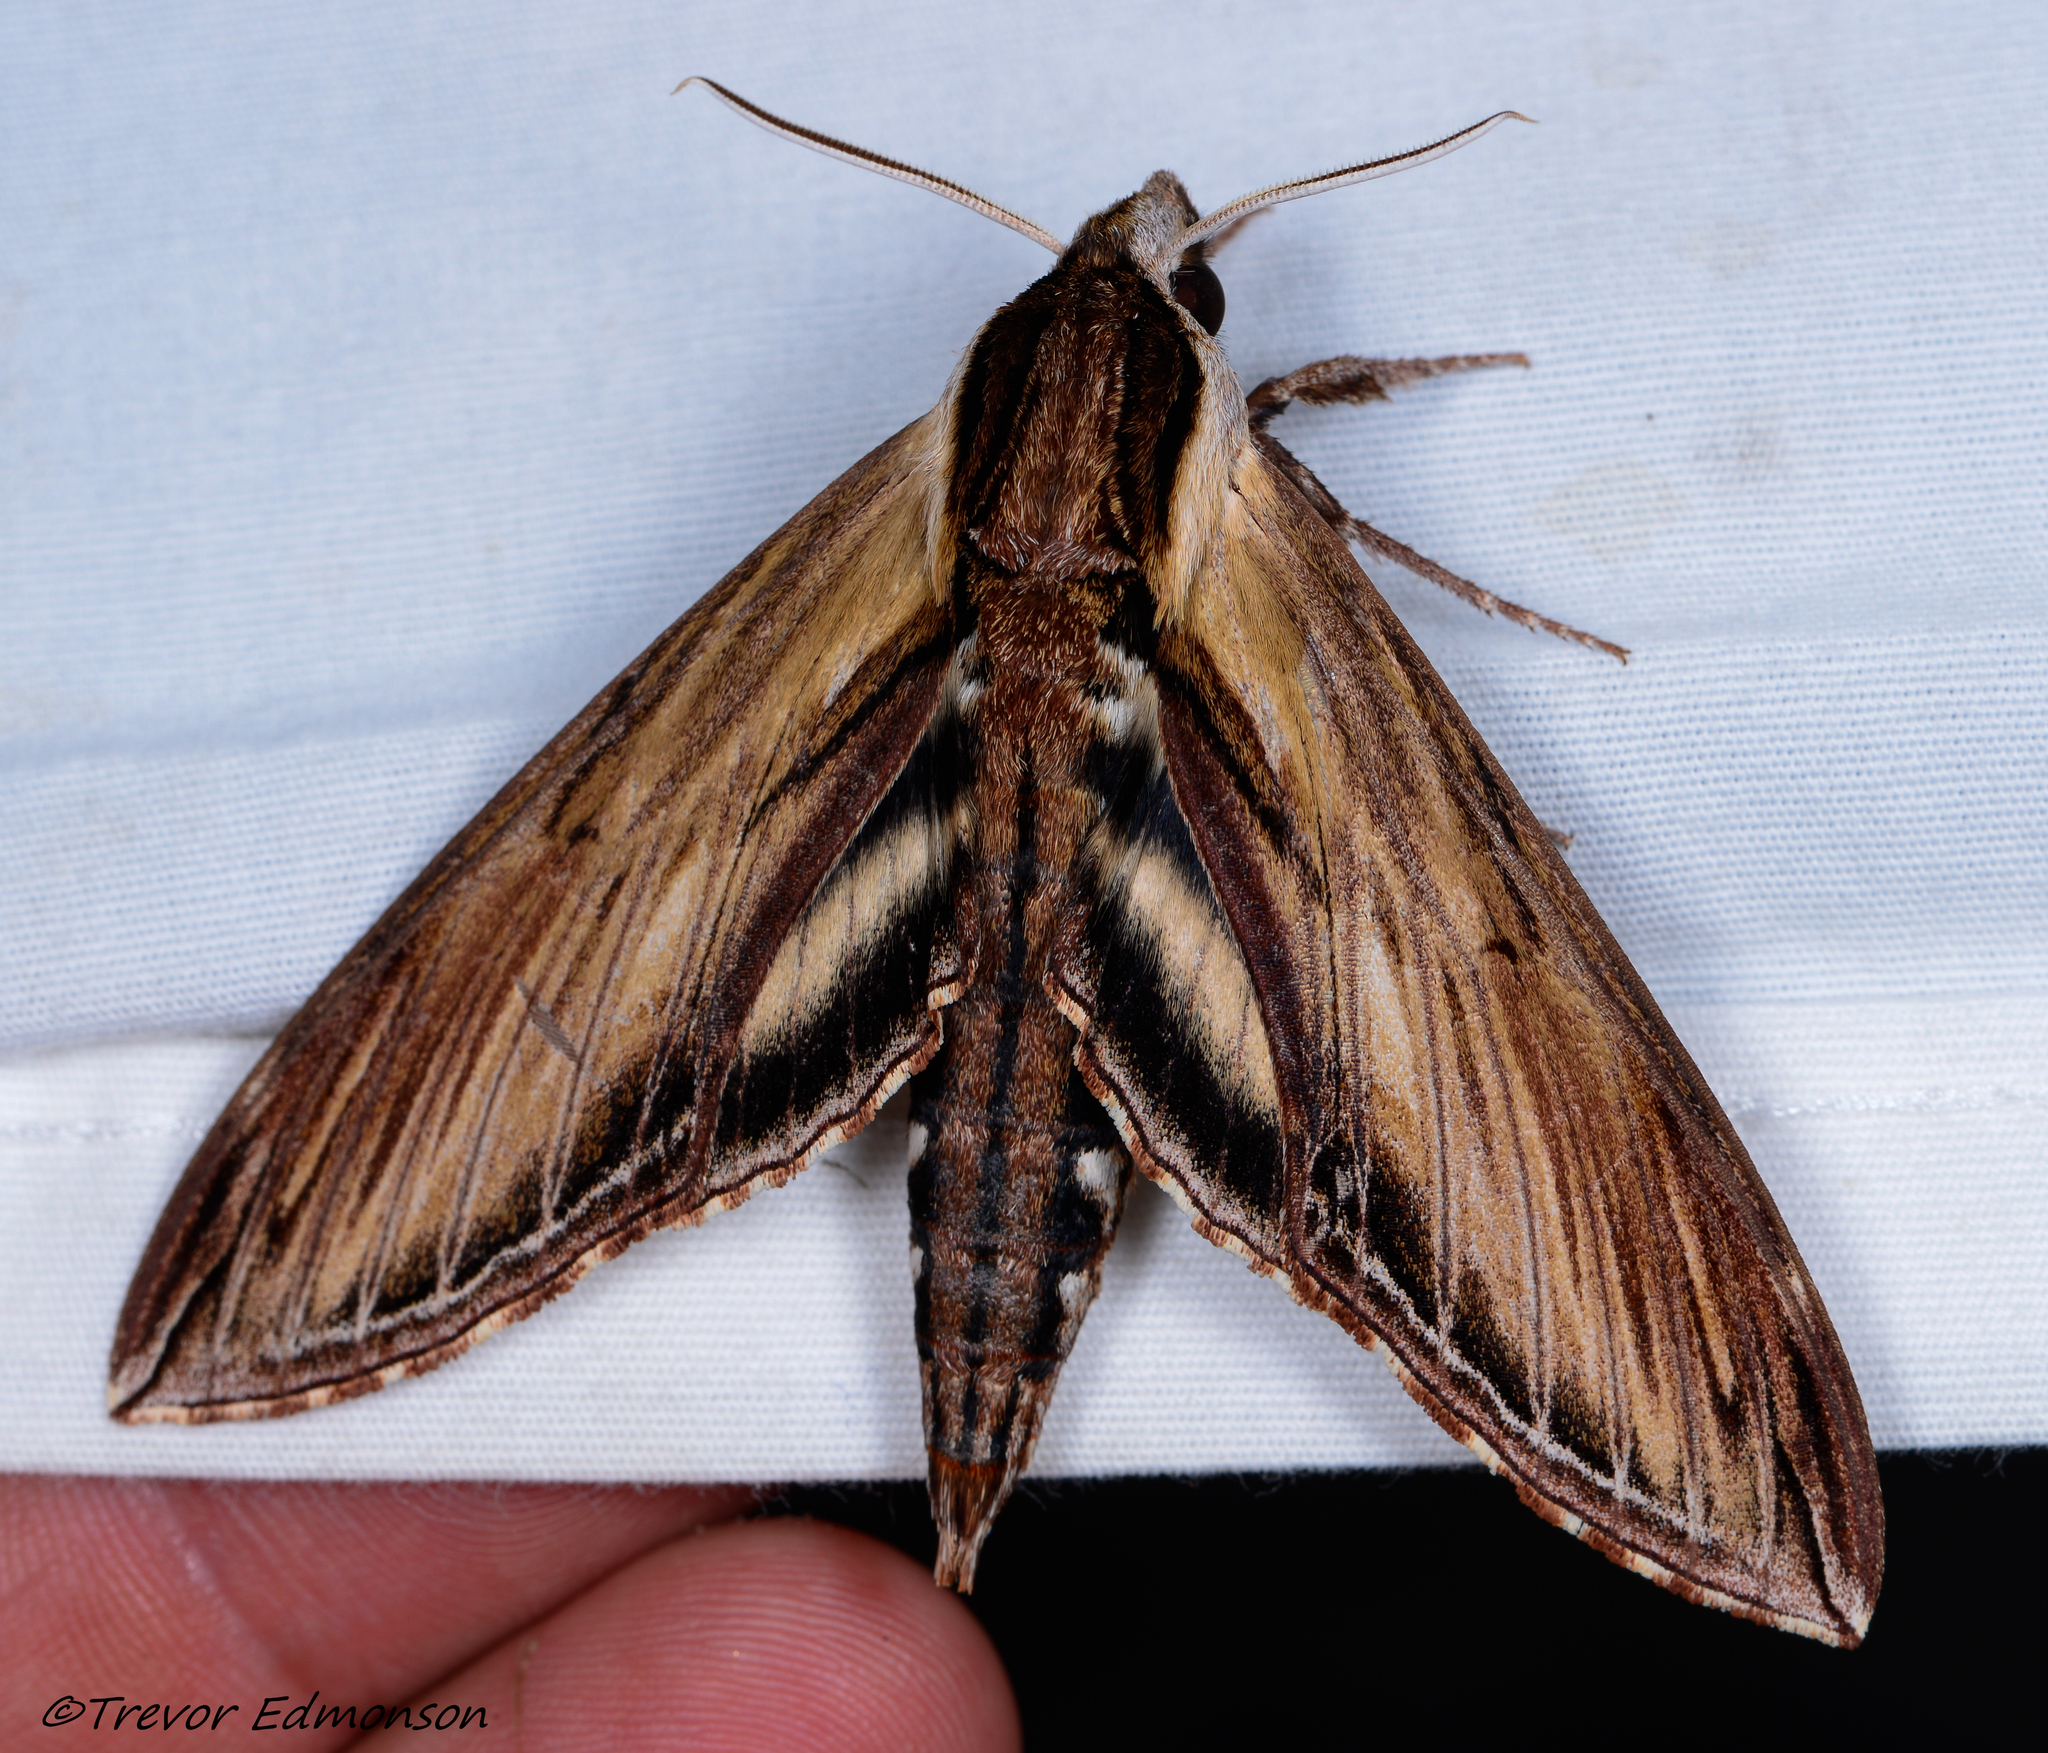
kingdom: Animalia
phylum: Arthropoda
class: Insecta
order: Lepidoptera
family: Sphingidae
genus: Sphinx
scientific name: Sphinx kalmiae
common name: Laurel sphinx
